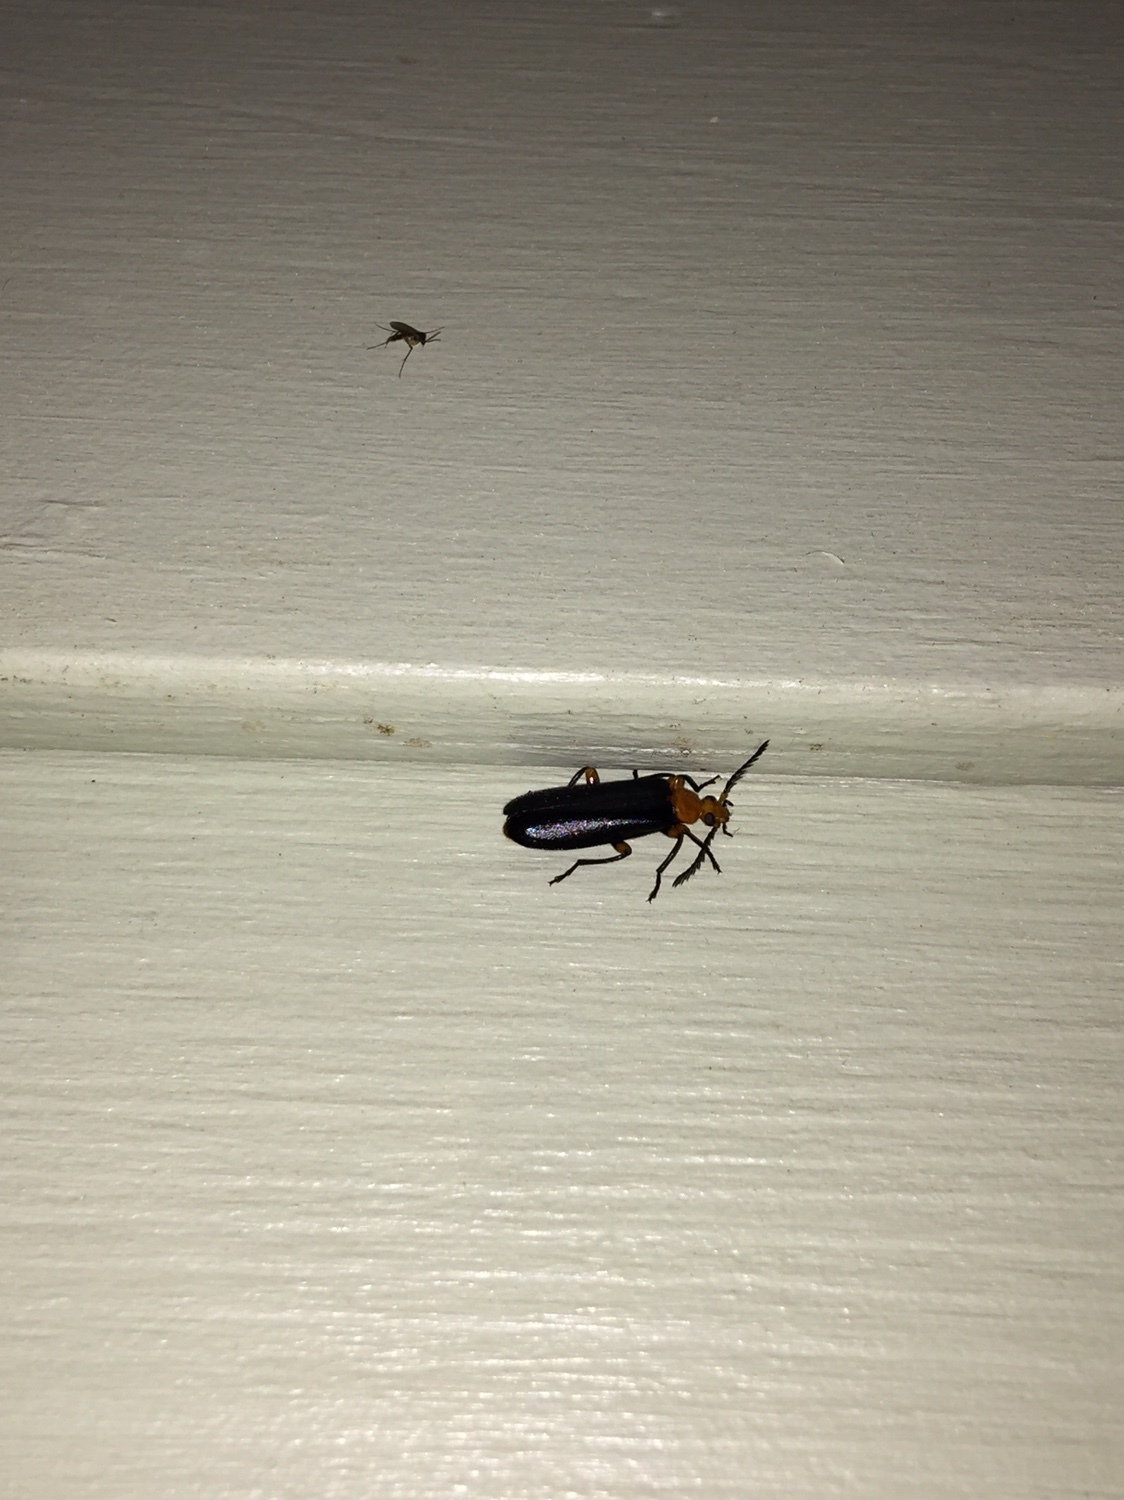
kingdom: Animalia
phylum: Arthropoda
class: Insecta
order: Coleoptera
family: Pyrochroidae
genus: Neopyrochroa
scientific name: Neopyrochroa flabellata
